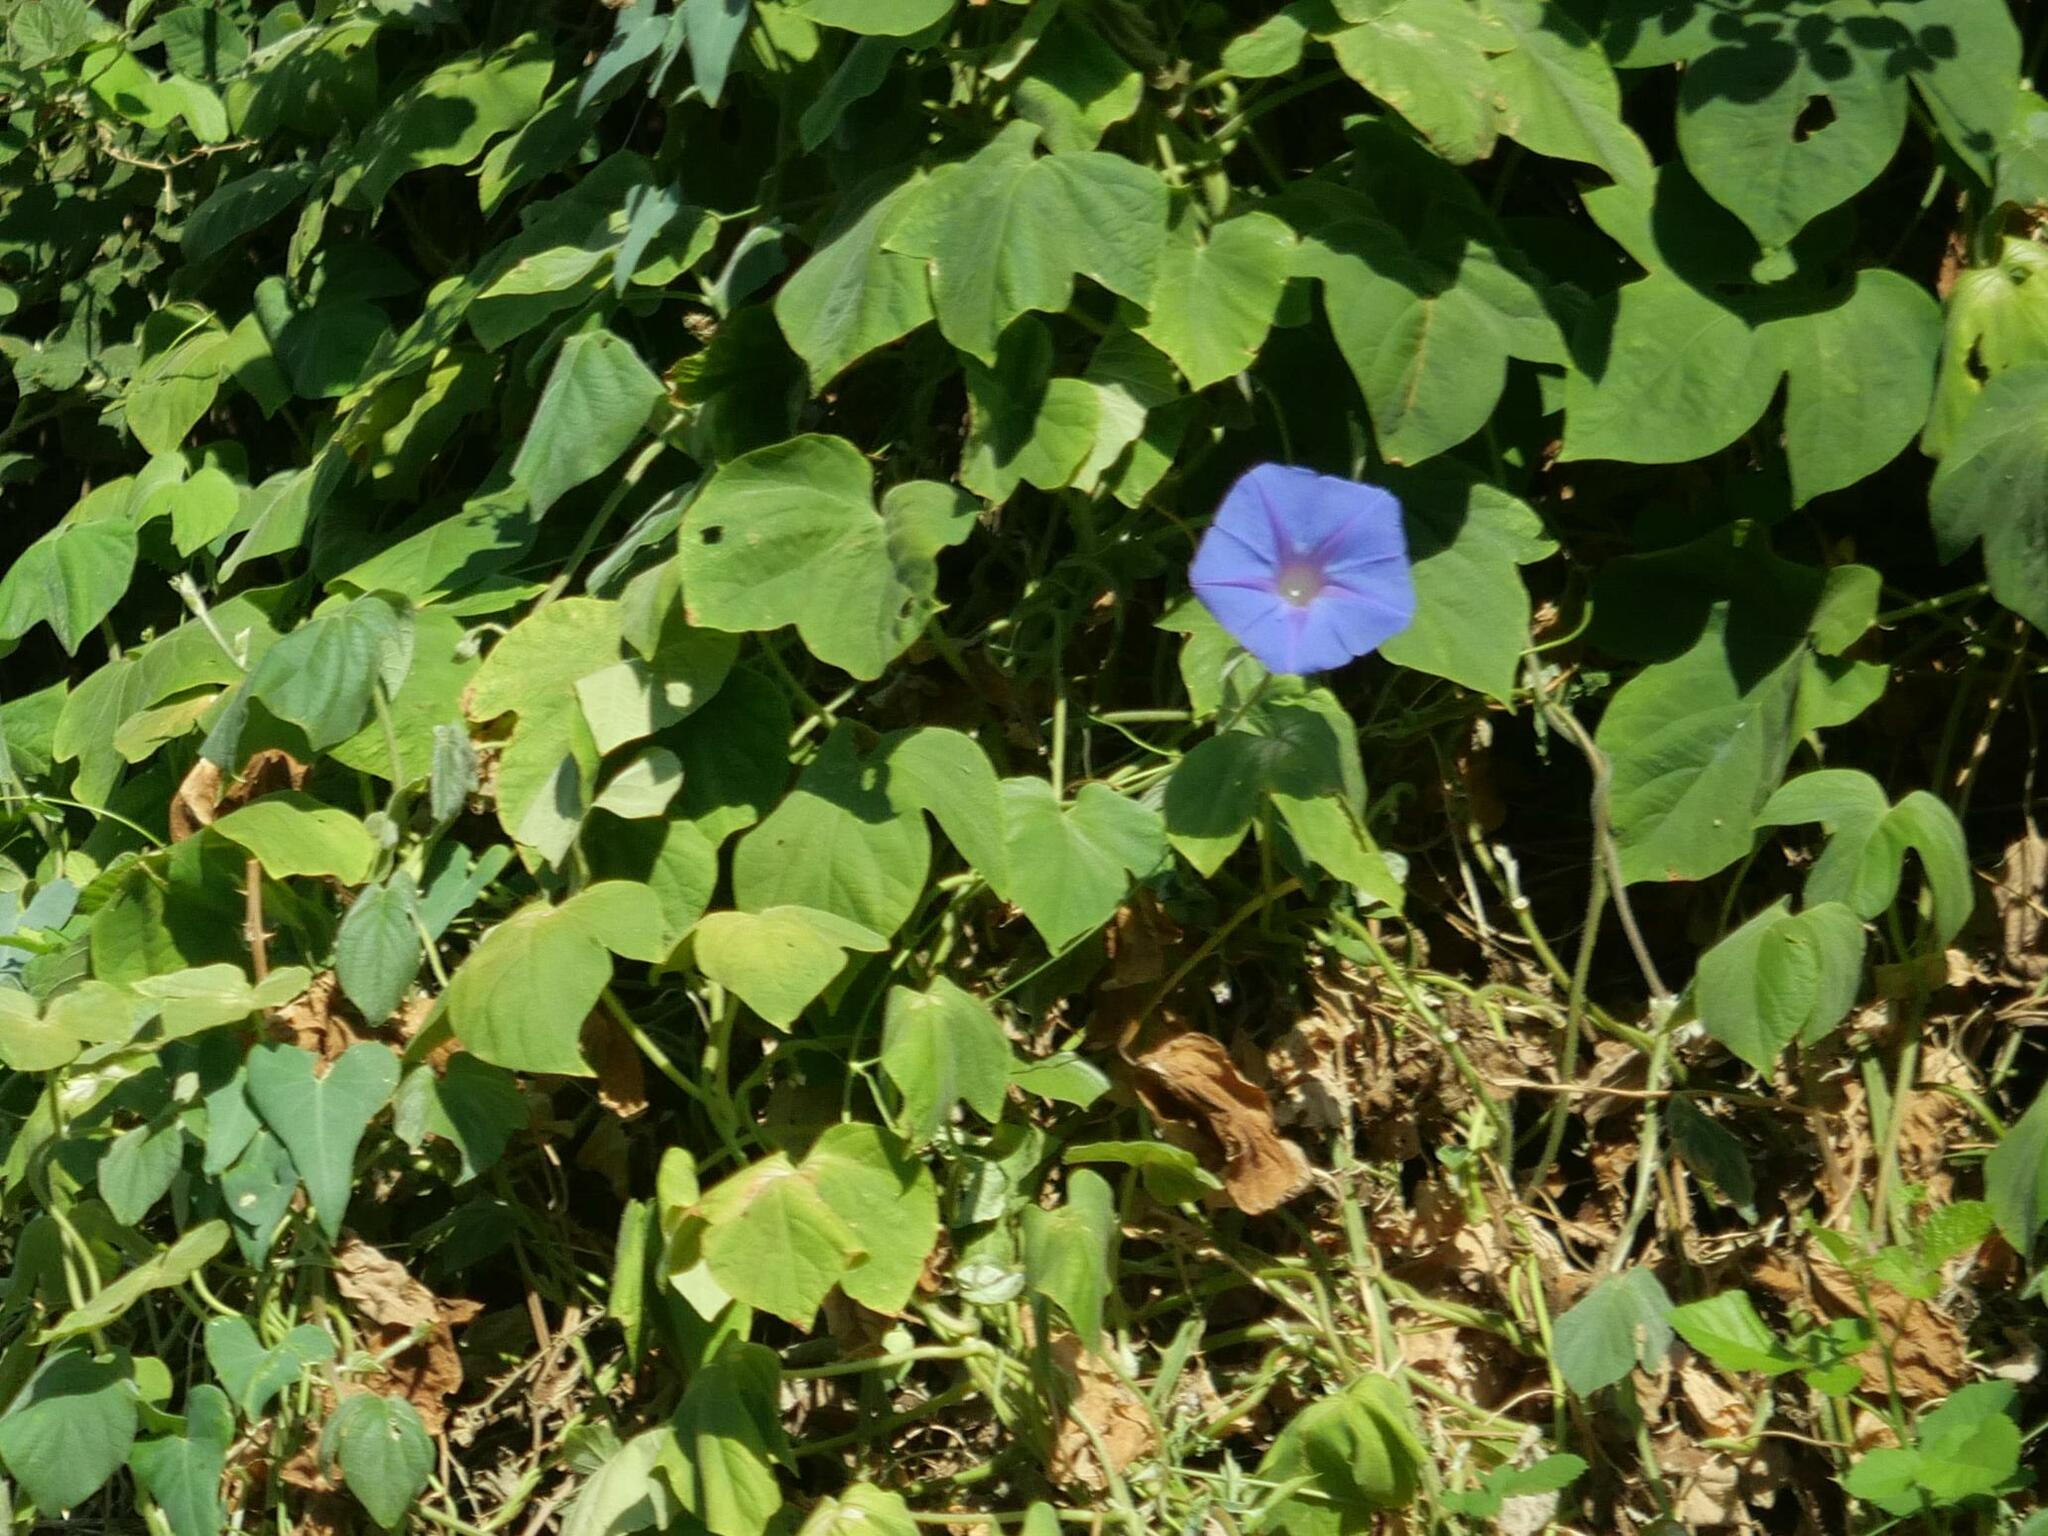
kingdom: Plantae
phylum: Tracheophyta
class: Magnoliopsida
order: Solanales
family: Convolvulaceae
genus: Ipomoea
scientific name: Ipomoea indica
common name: Blue dawnflower
